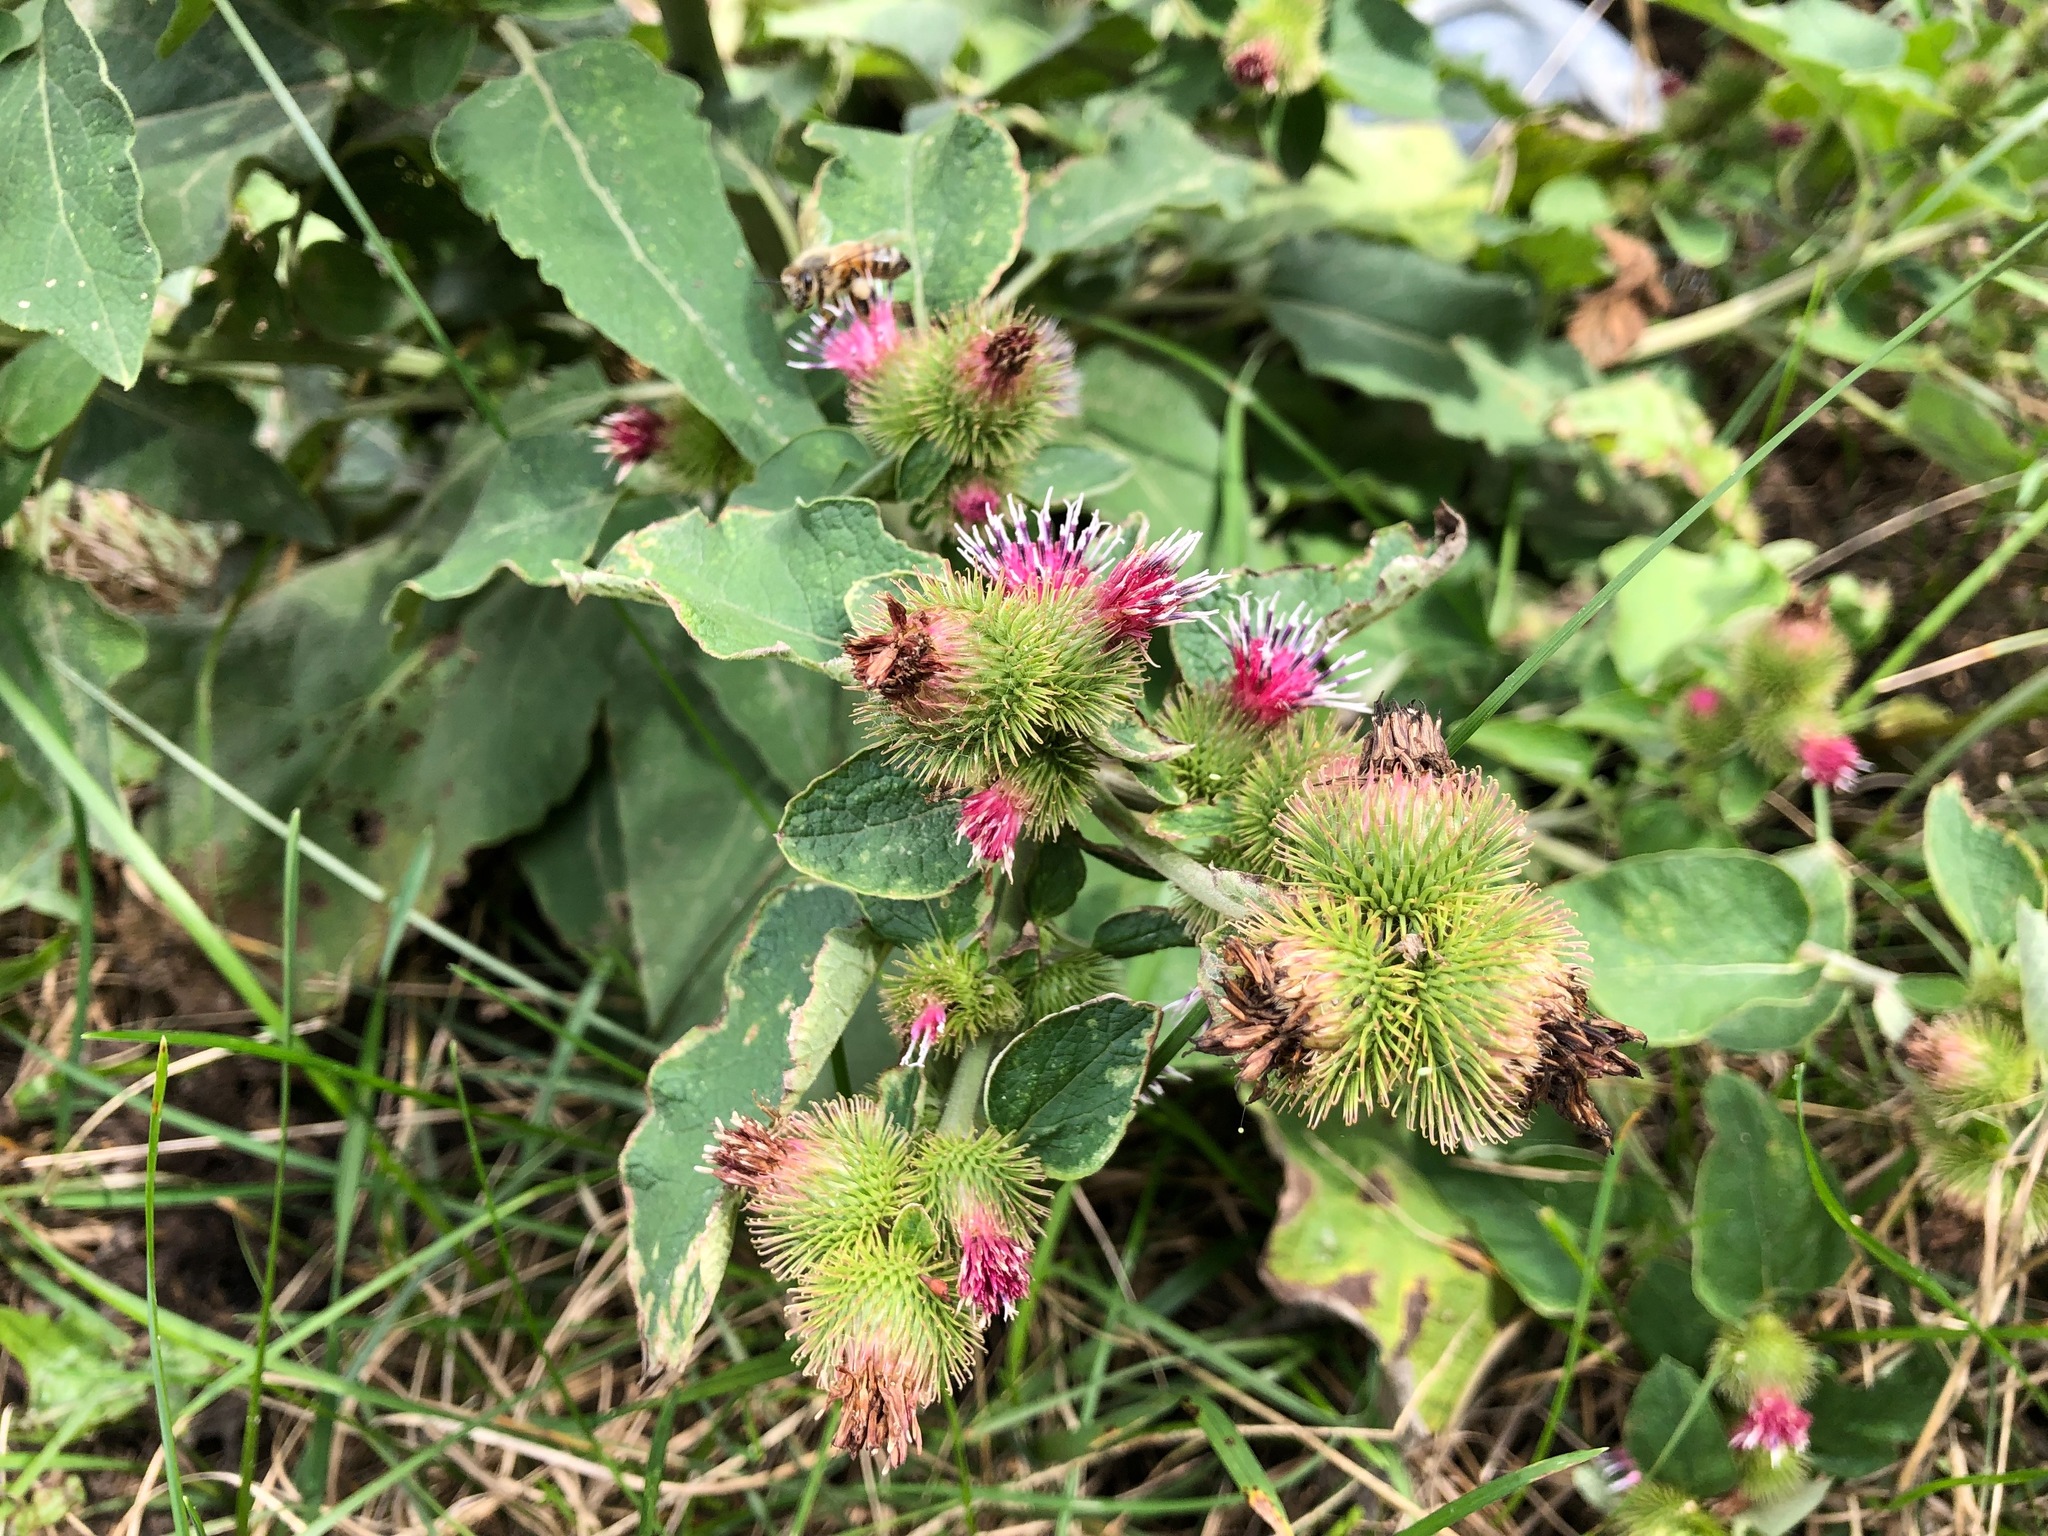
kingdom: Plantae
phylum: Tracheophyta
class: Magnoliopsida
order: Asterales
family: Asteraceae
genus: Arctium
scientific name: Arctium minus
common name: Lesser burdock
